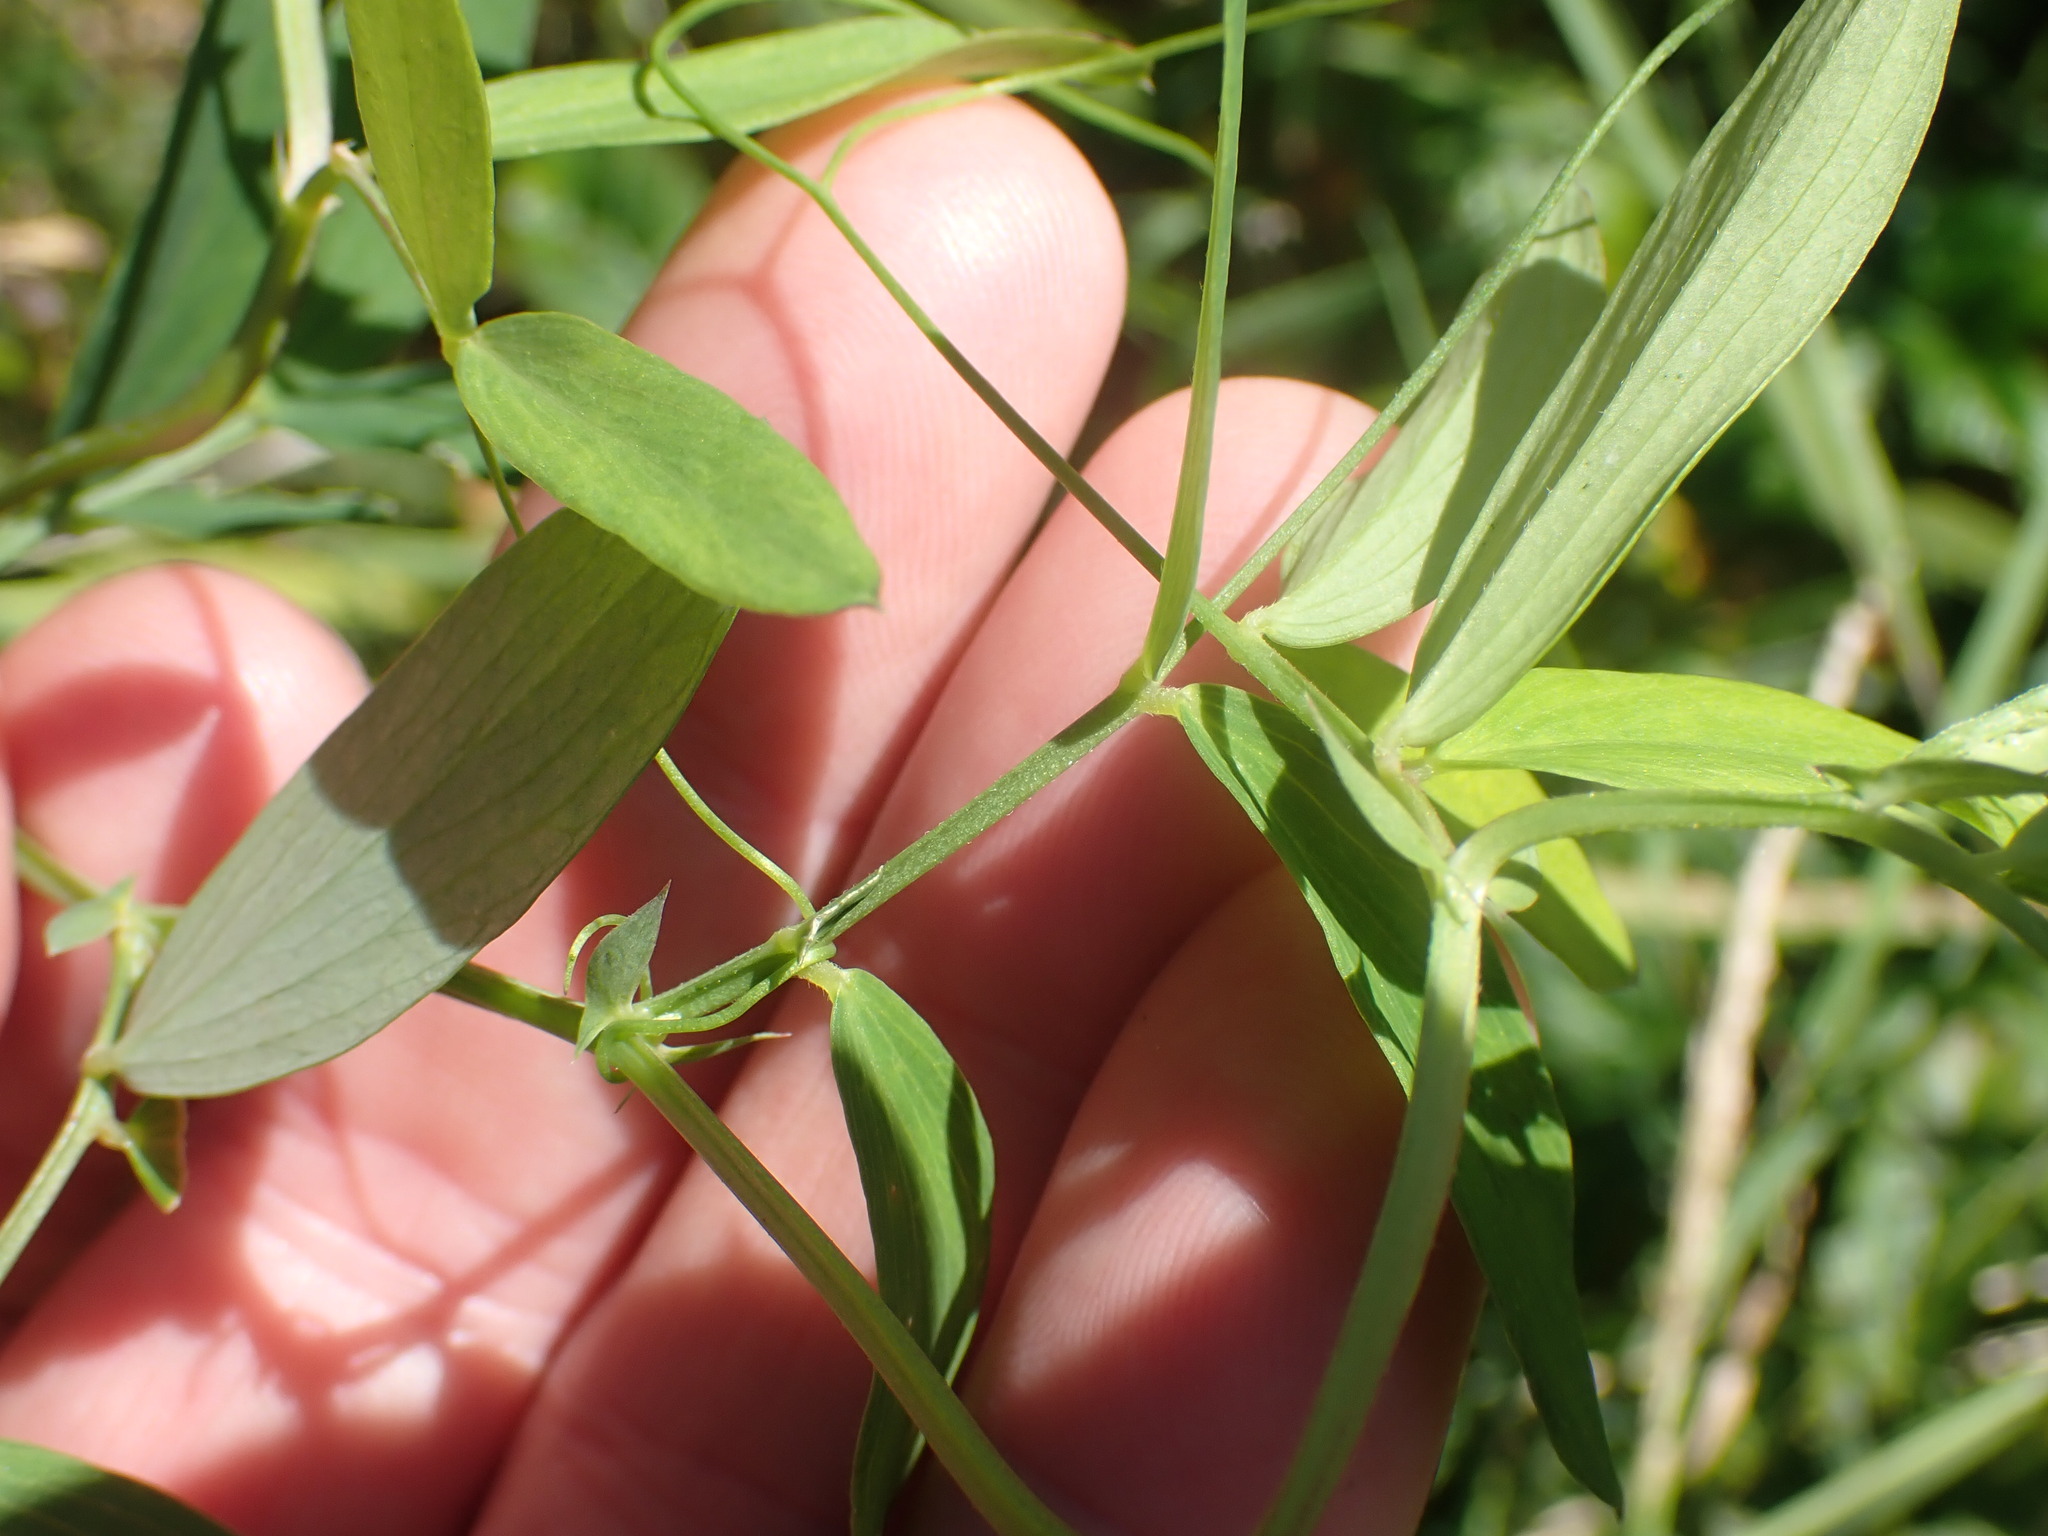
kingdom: Plantae
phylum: Tracheophyta
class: Magnoliopsida
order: Fabales
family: Fabaceae
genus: Lathyrus
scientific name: Lathyrus palustris
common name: Marsh pea
